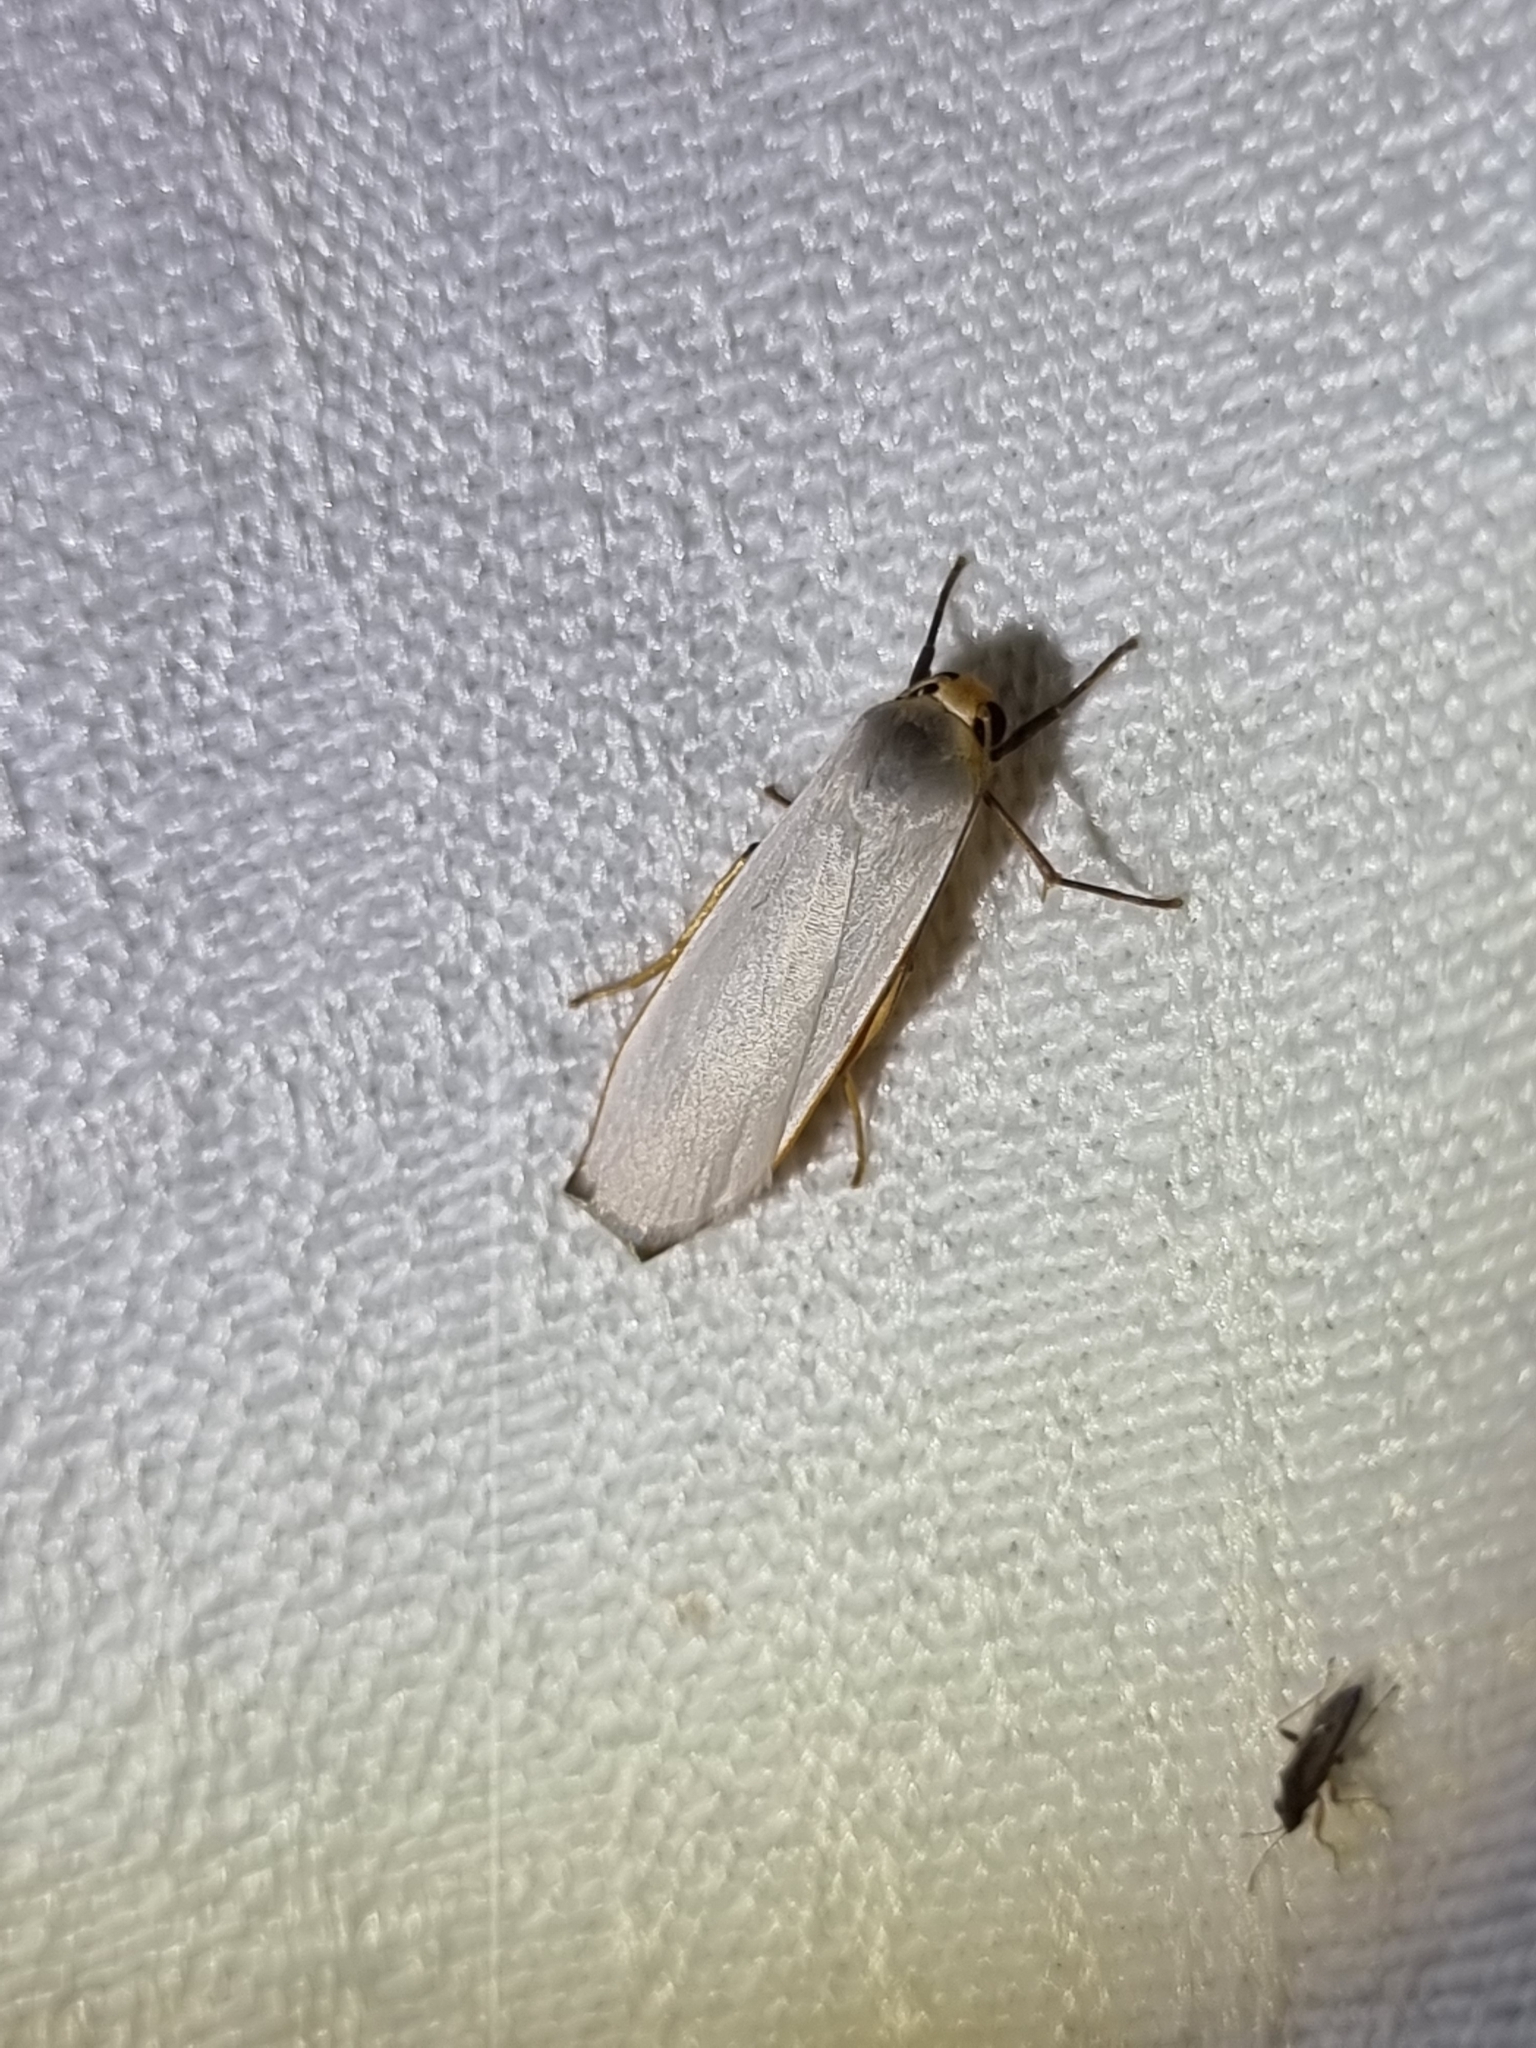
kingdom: Animalia
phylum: Arthropoda
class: Insecta
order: Lepidoptera
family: Erebidae
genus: Hesychopa
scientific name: Hesychopa chionora
